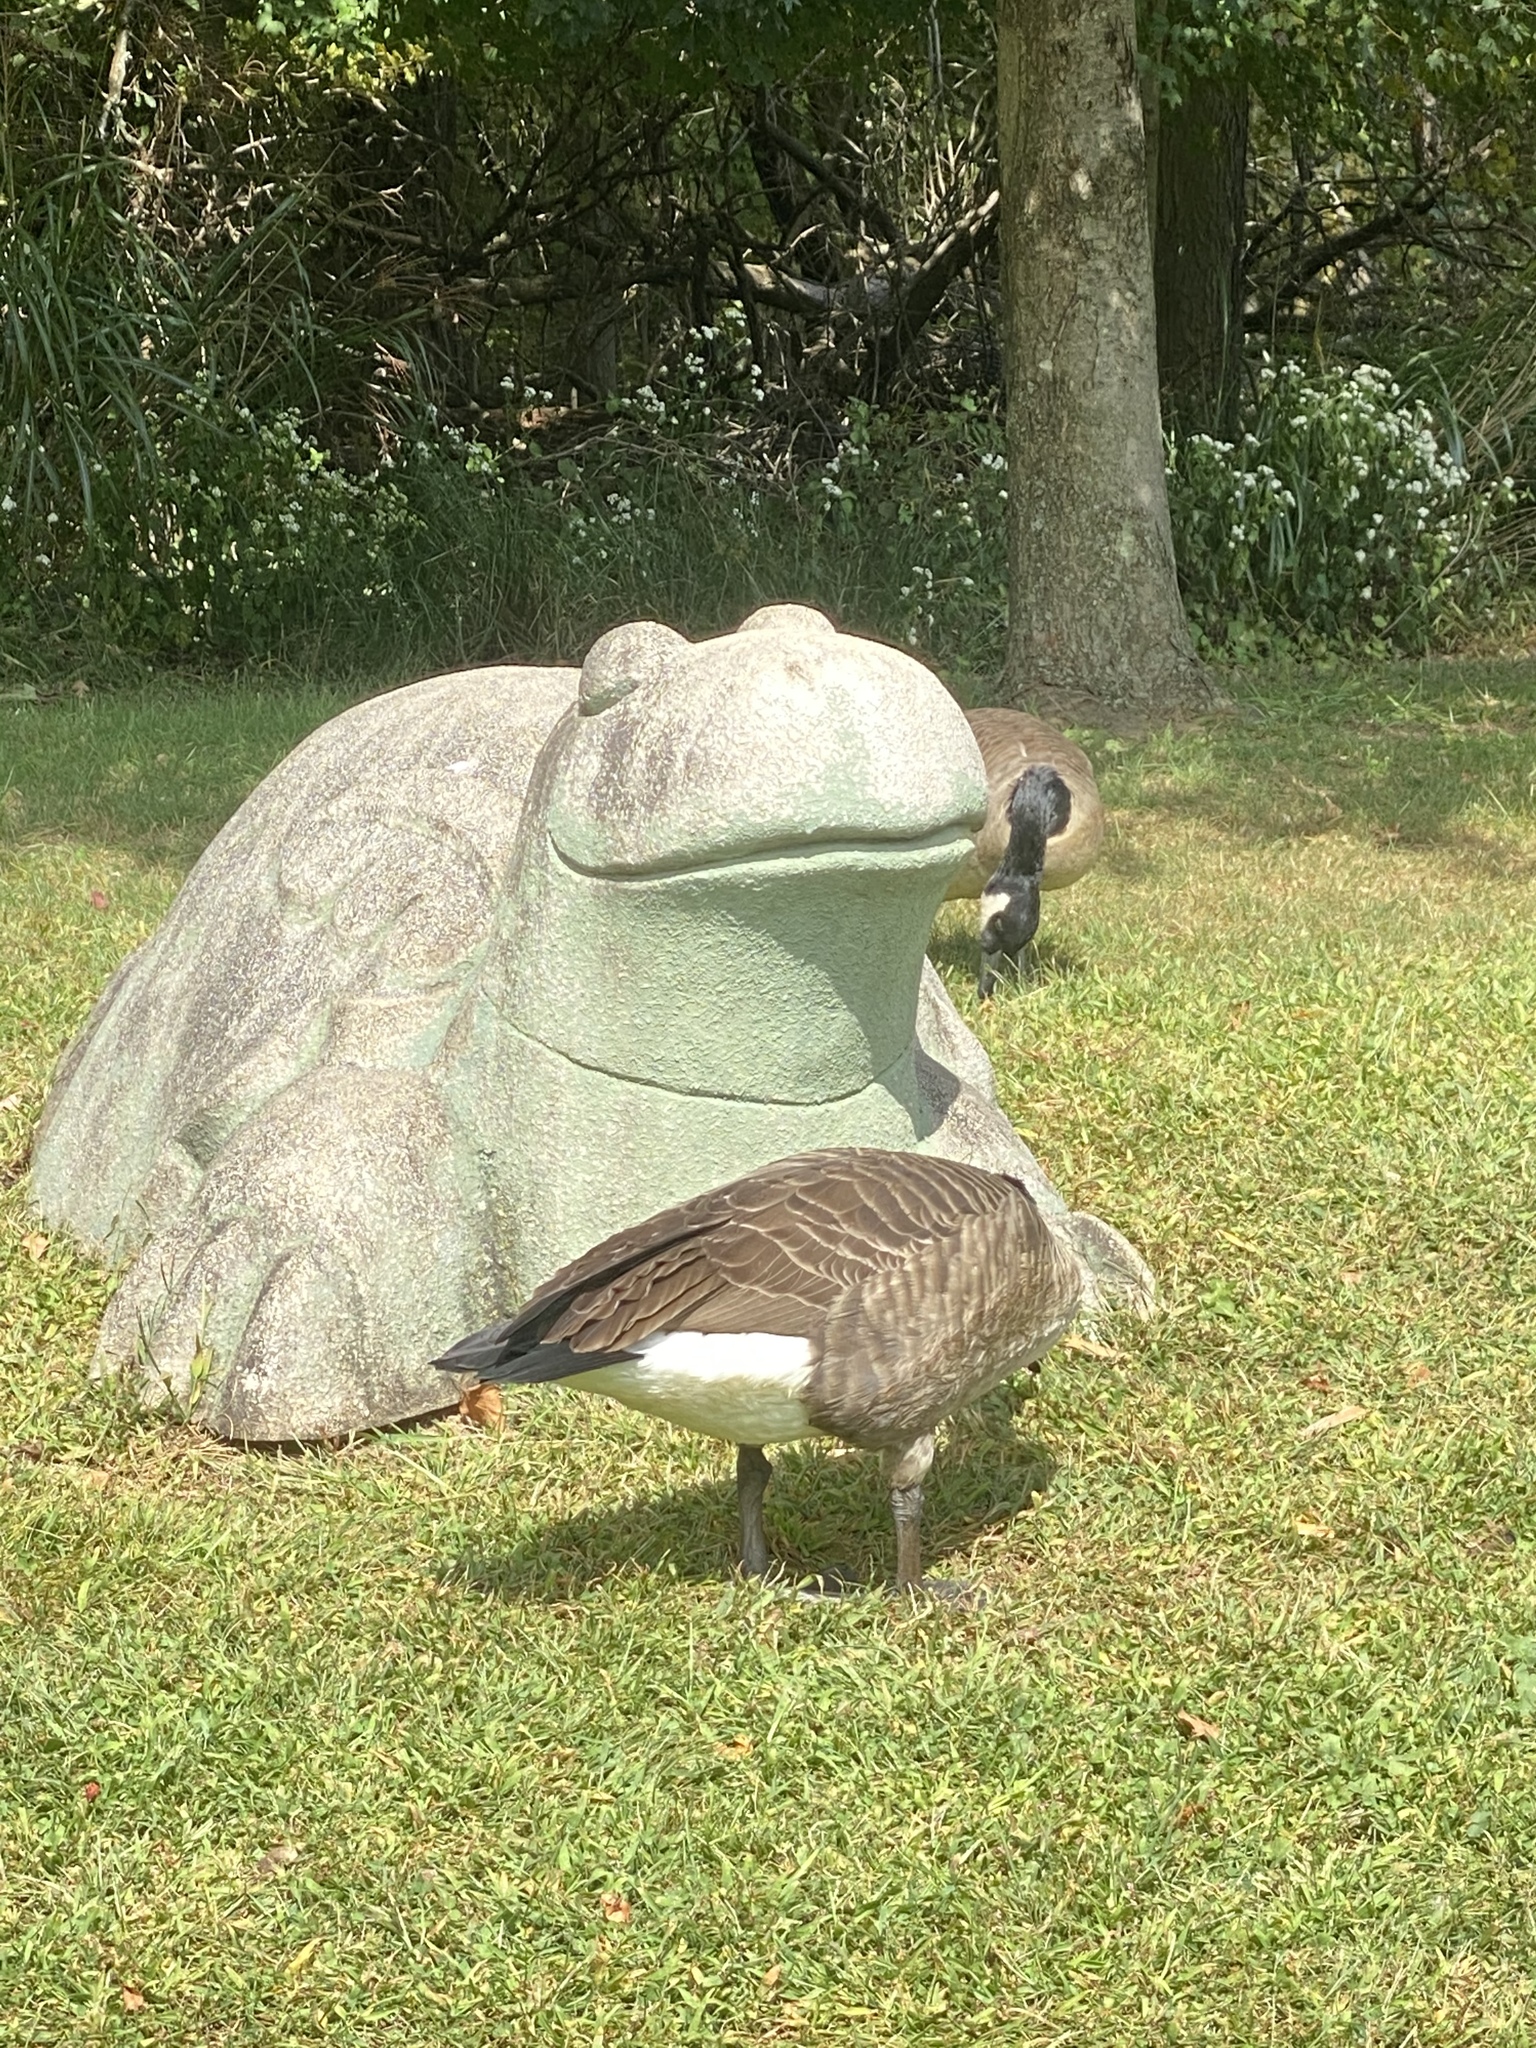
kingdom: Animalia
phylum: Chordata
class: Aves
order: Anseriformes
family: Anatidae
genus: Branta
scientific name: Branta canadensis
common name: Canada goose
